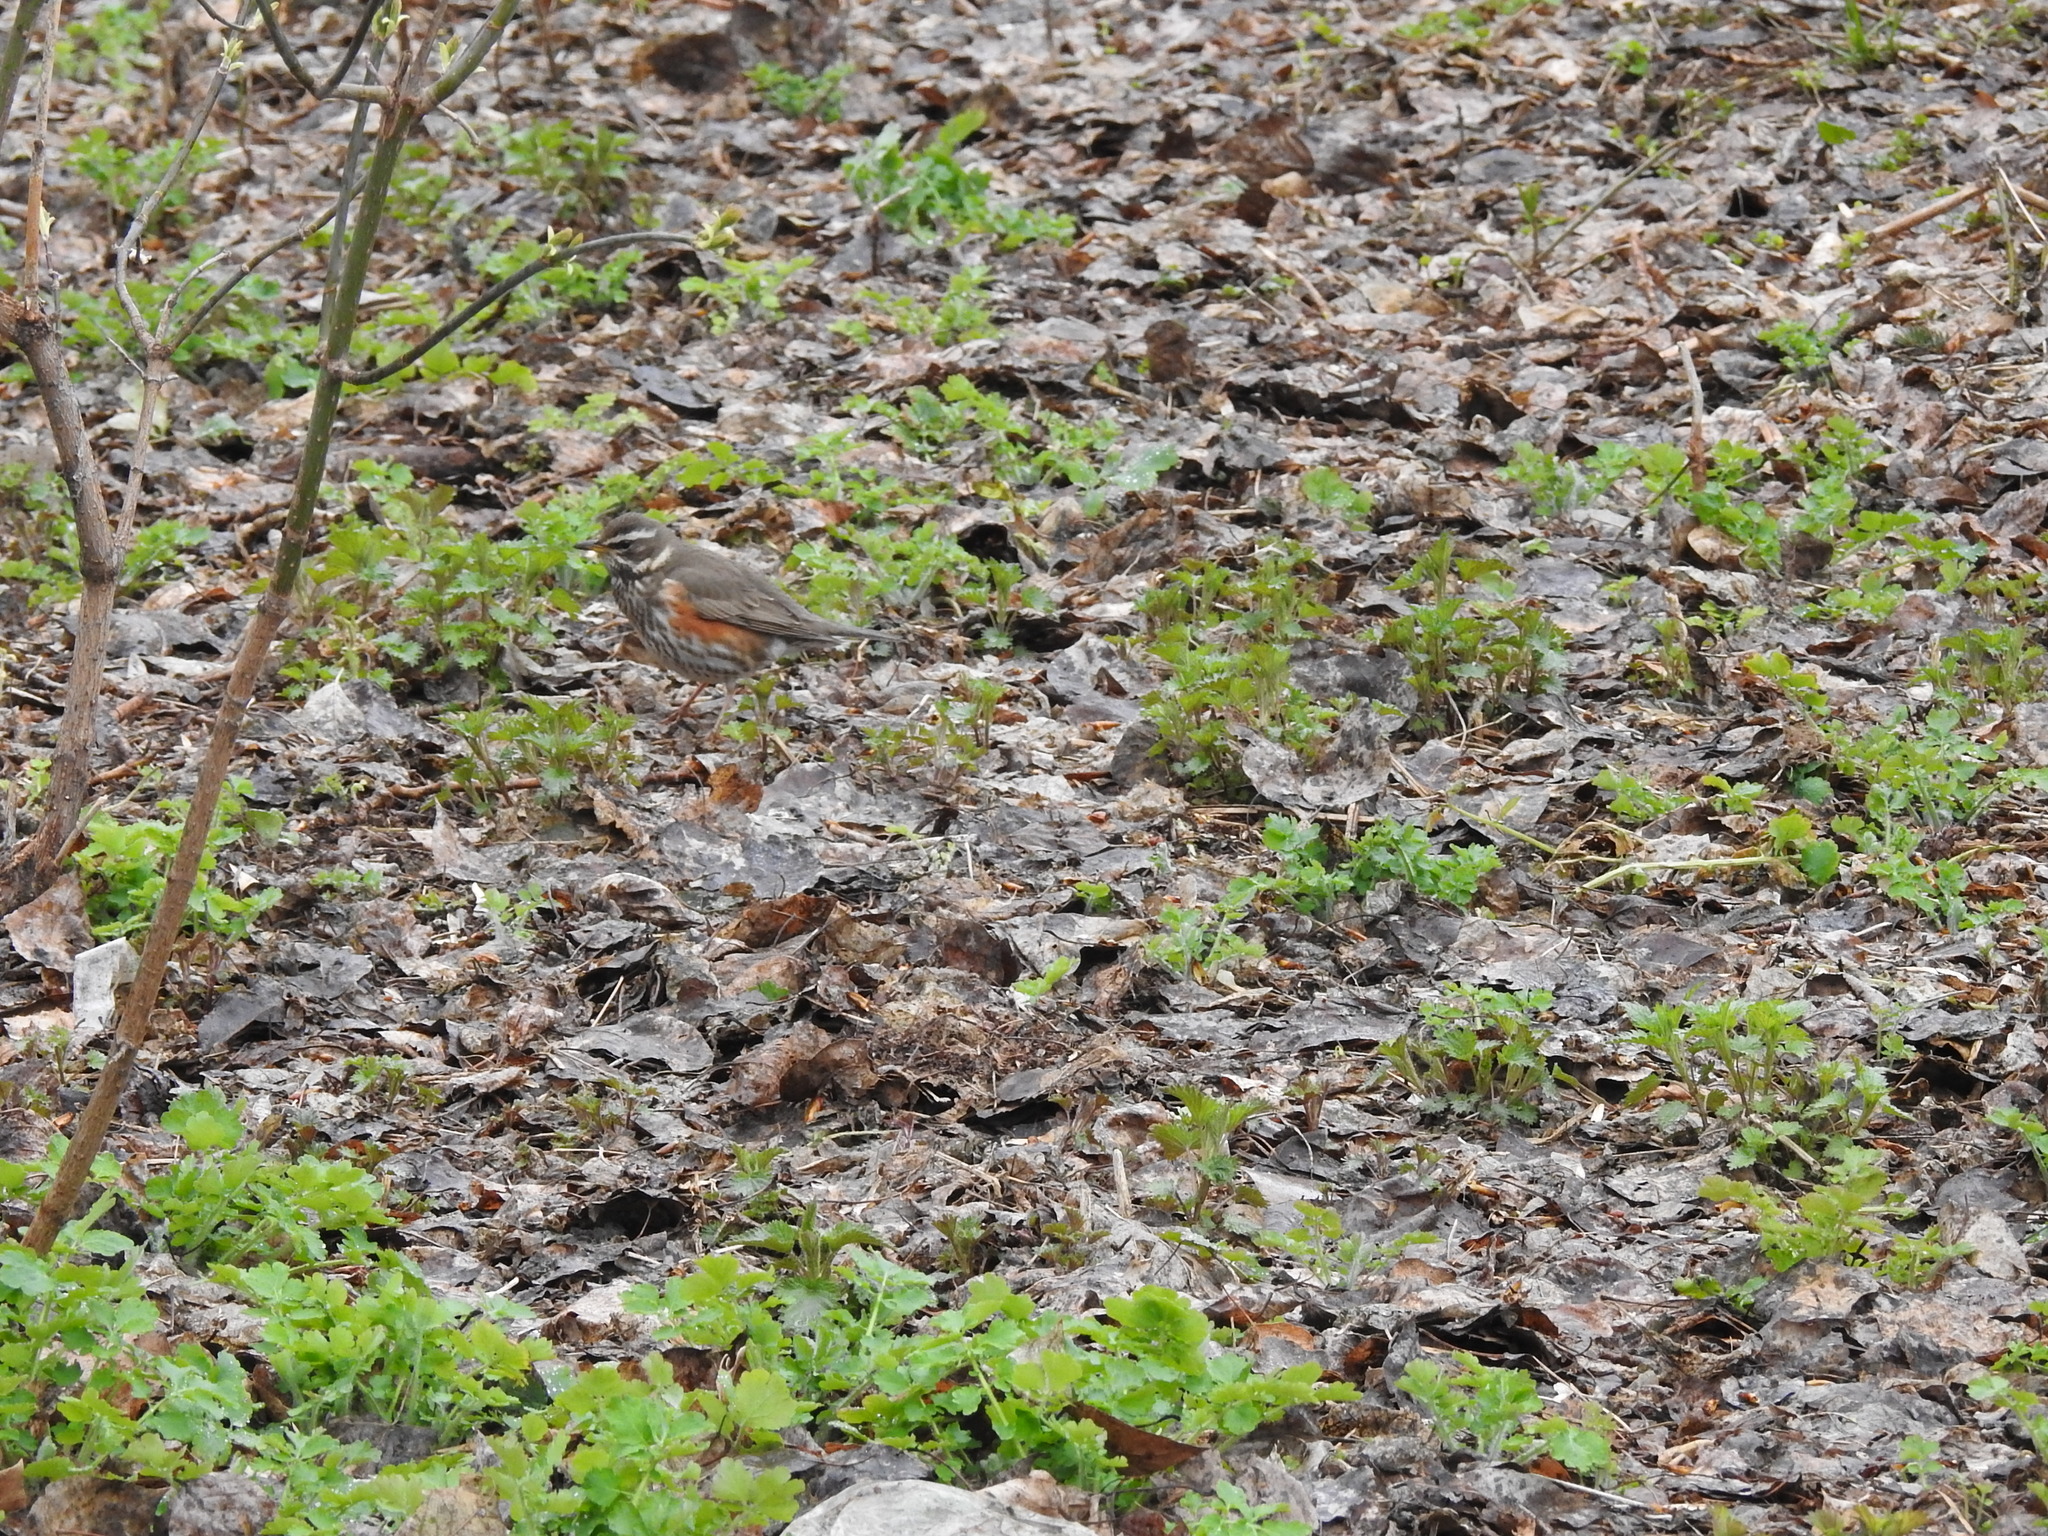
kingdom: Animalia
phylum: Chordata
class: Aves
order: Passeriformes
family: Turdidae
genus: Turdus
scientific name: Turdus iliacus
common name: Redwing
